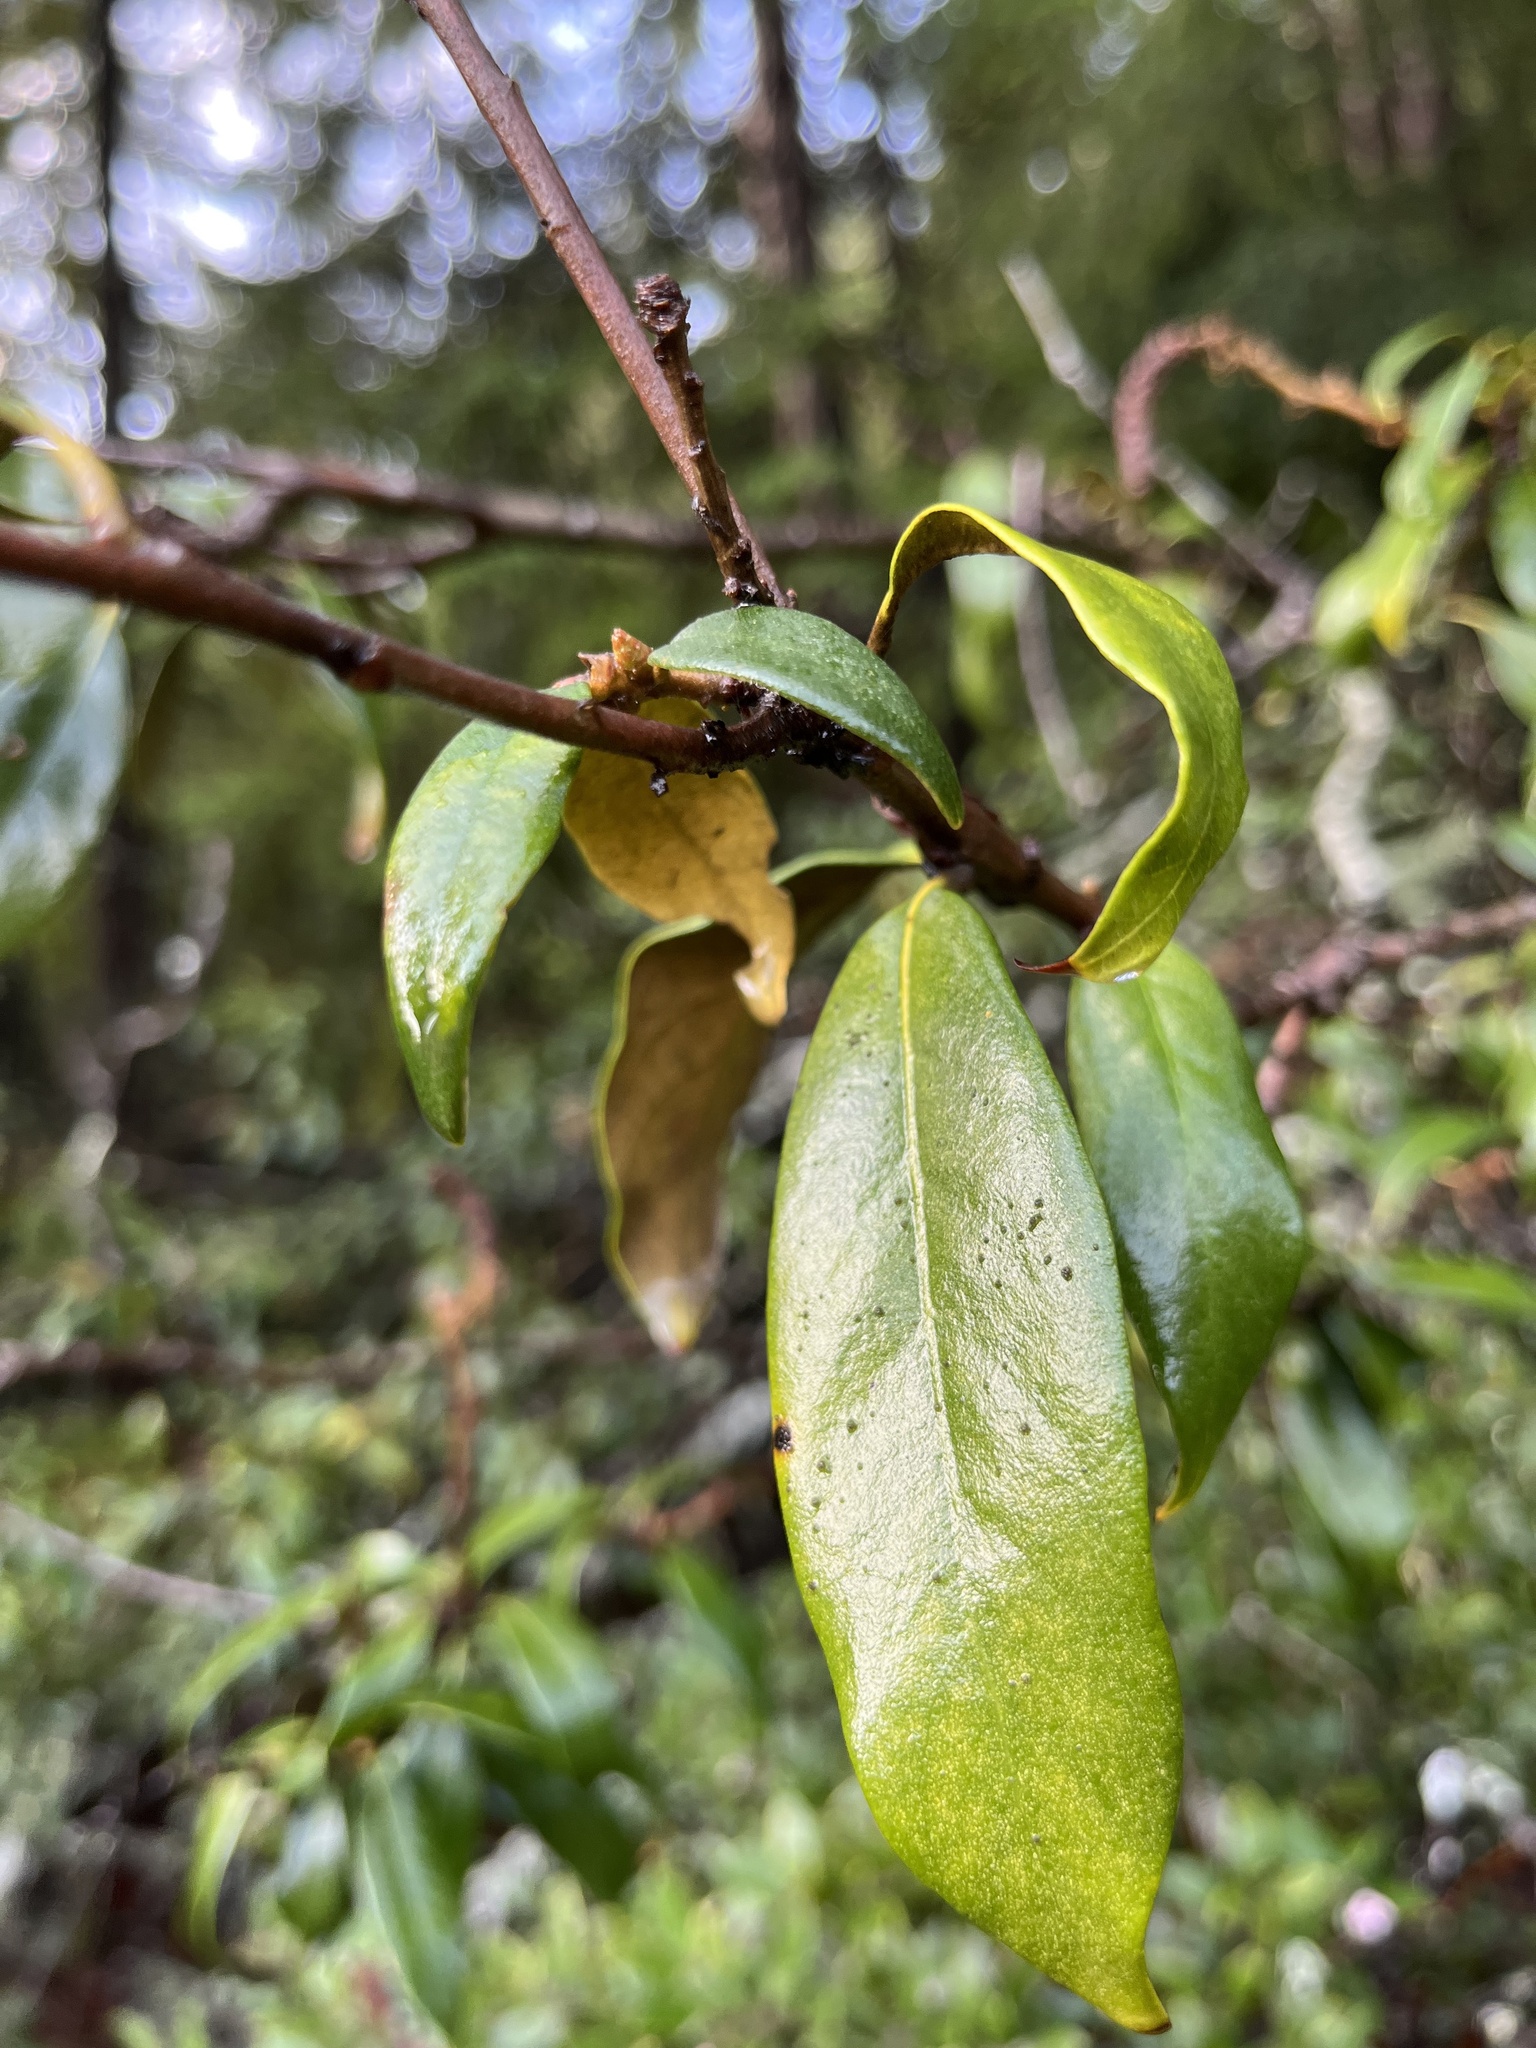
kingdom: Plantae
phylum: Tracheophyta
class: Magnoliopsida
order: Fagales
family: Fagaceae
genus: Chrysolepis
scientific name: Chrysolepis chrysophylla
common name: Giant chinquapin
